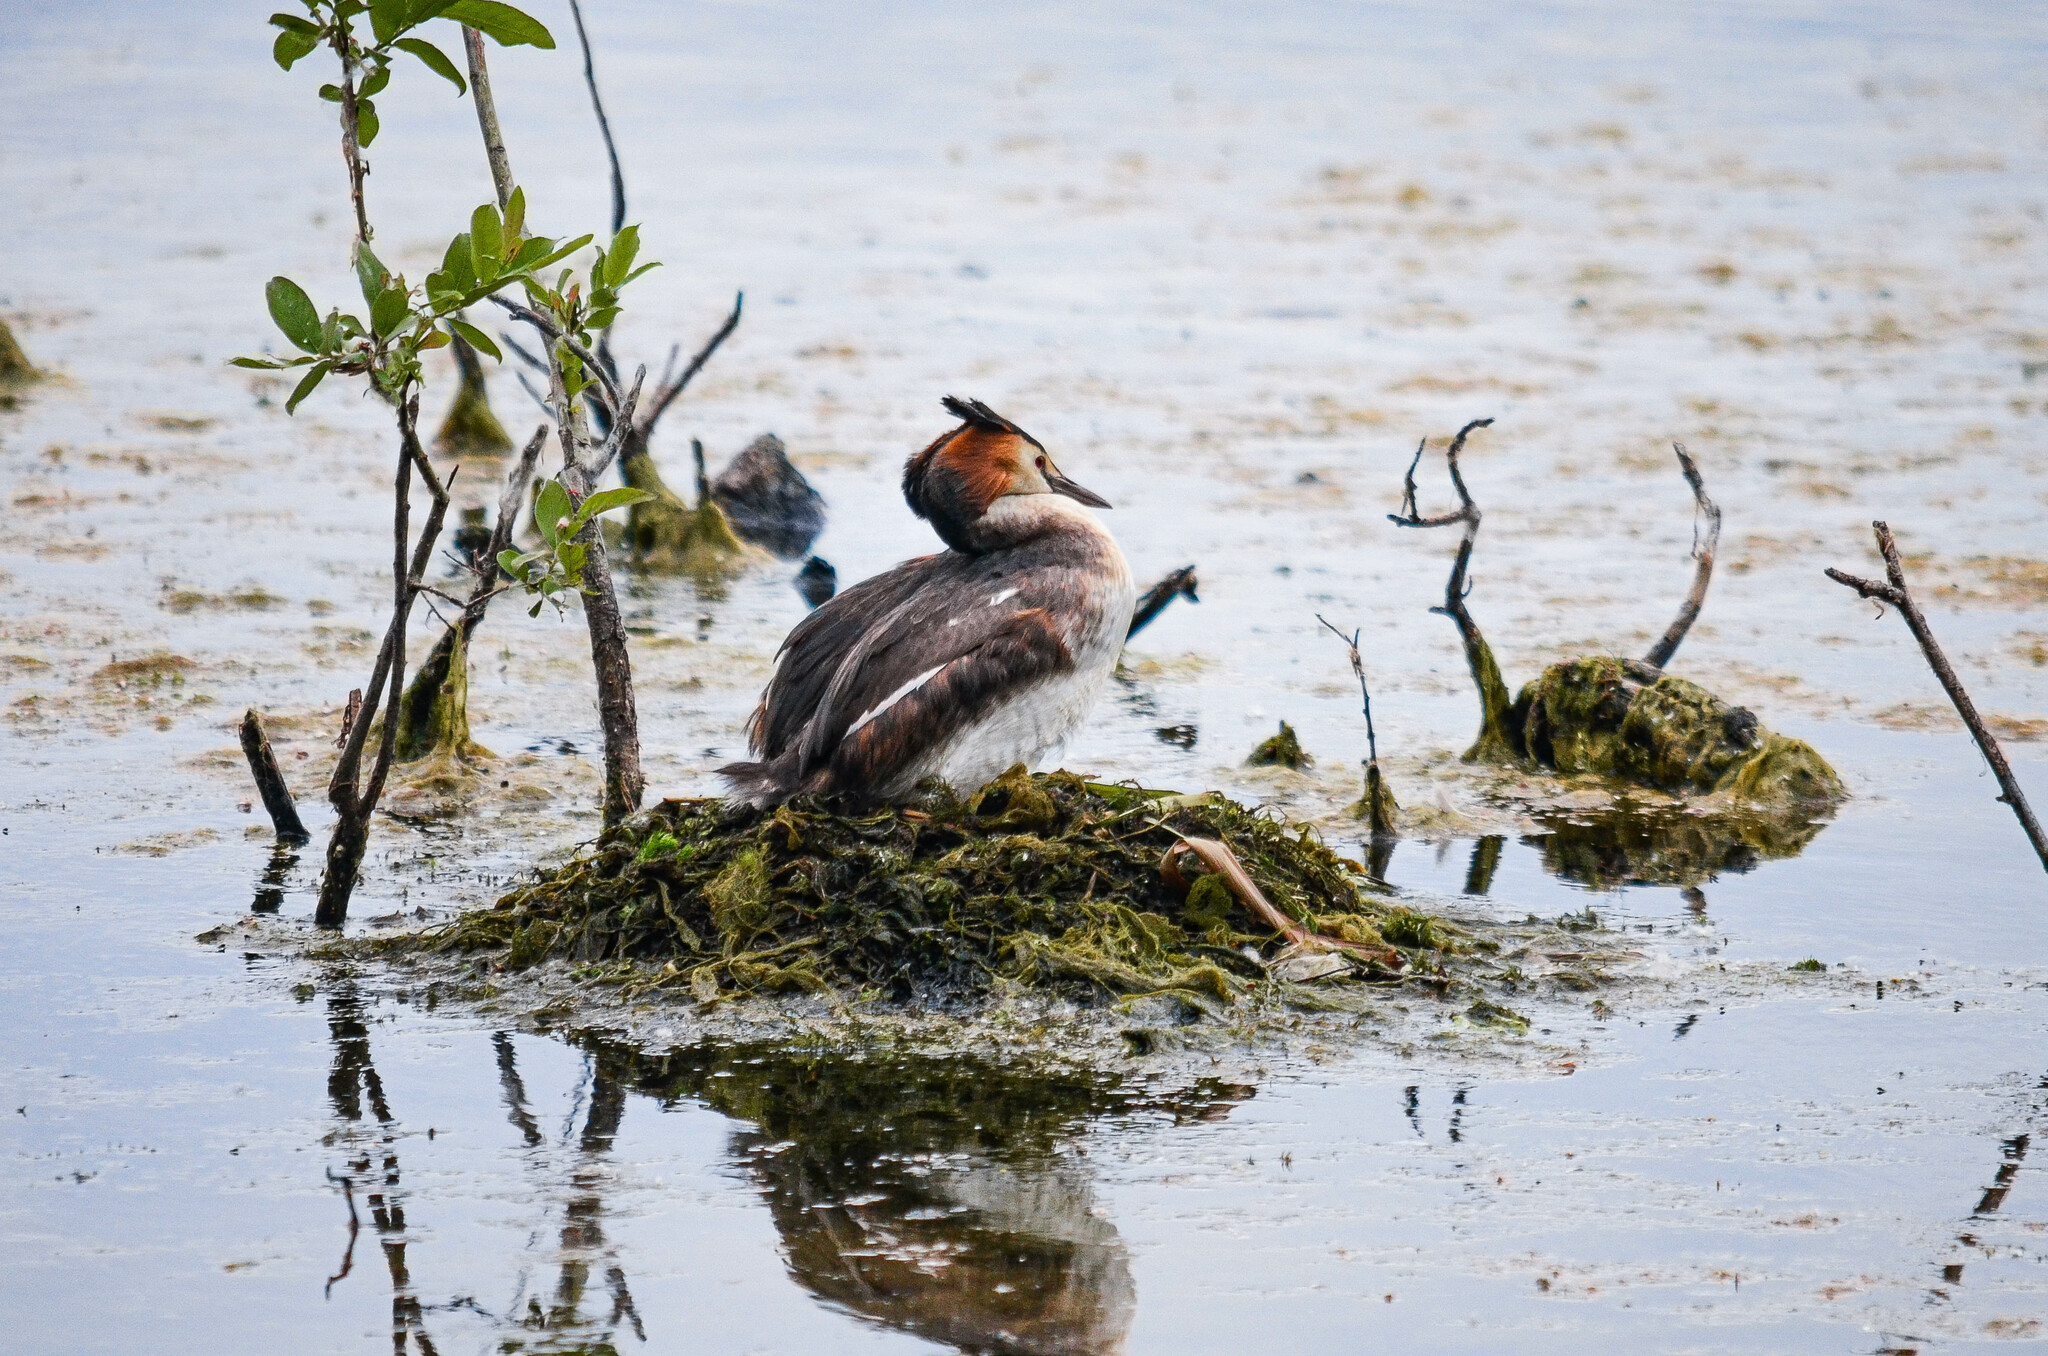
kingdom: Animalia
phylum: Chordata
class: Aves
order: Podicipediformes
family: Podicipedidae
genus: Podiceps
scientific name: Podiceps cristatus
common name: Great crested grebe
